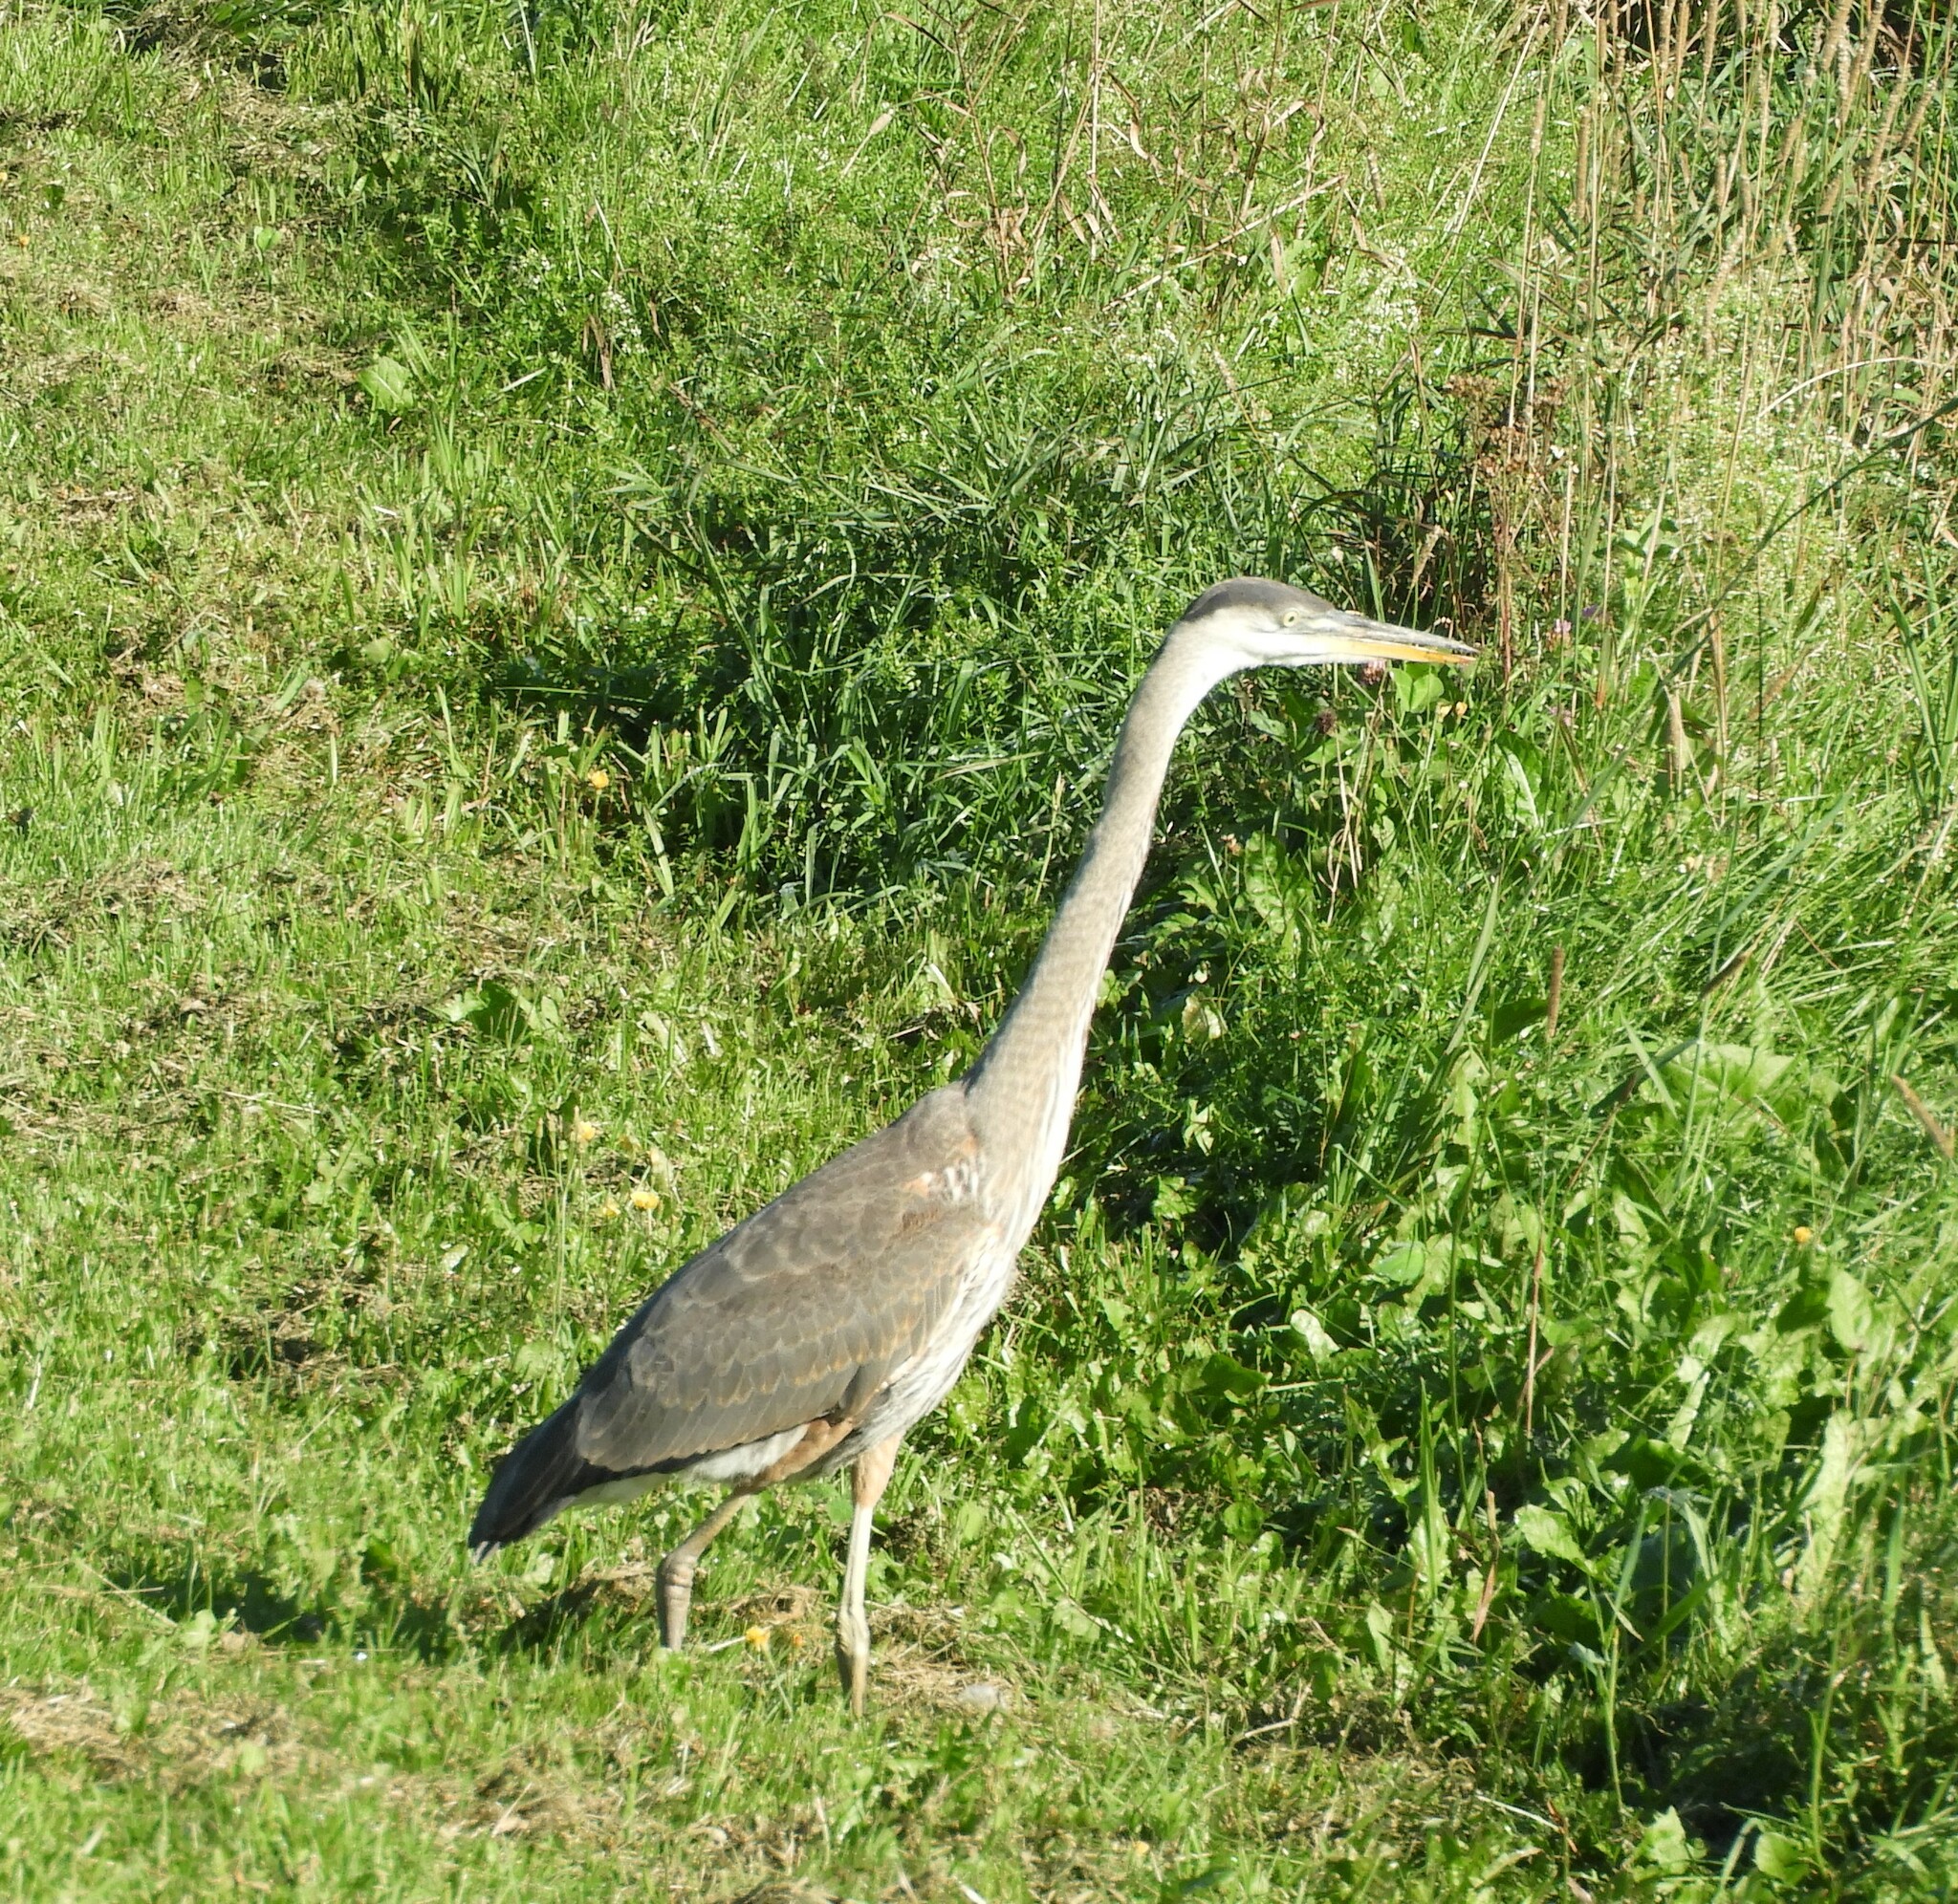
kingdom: Animalia
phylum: Chordata
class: Aves
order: Pelecaniformes
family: Ardeidae
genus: Ardea
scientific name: Ardea herodias
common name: Great blue heron
